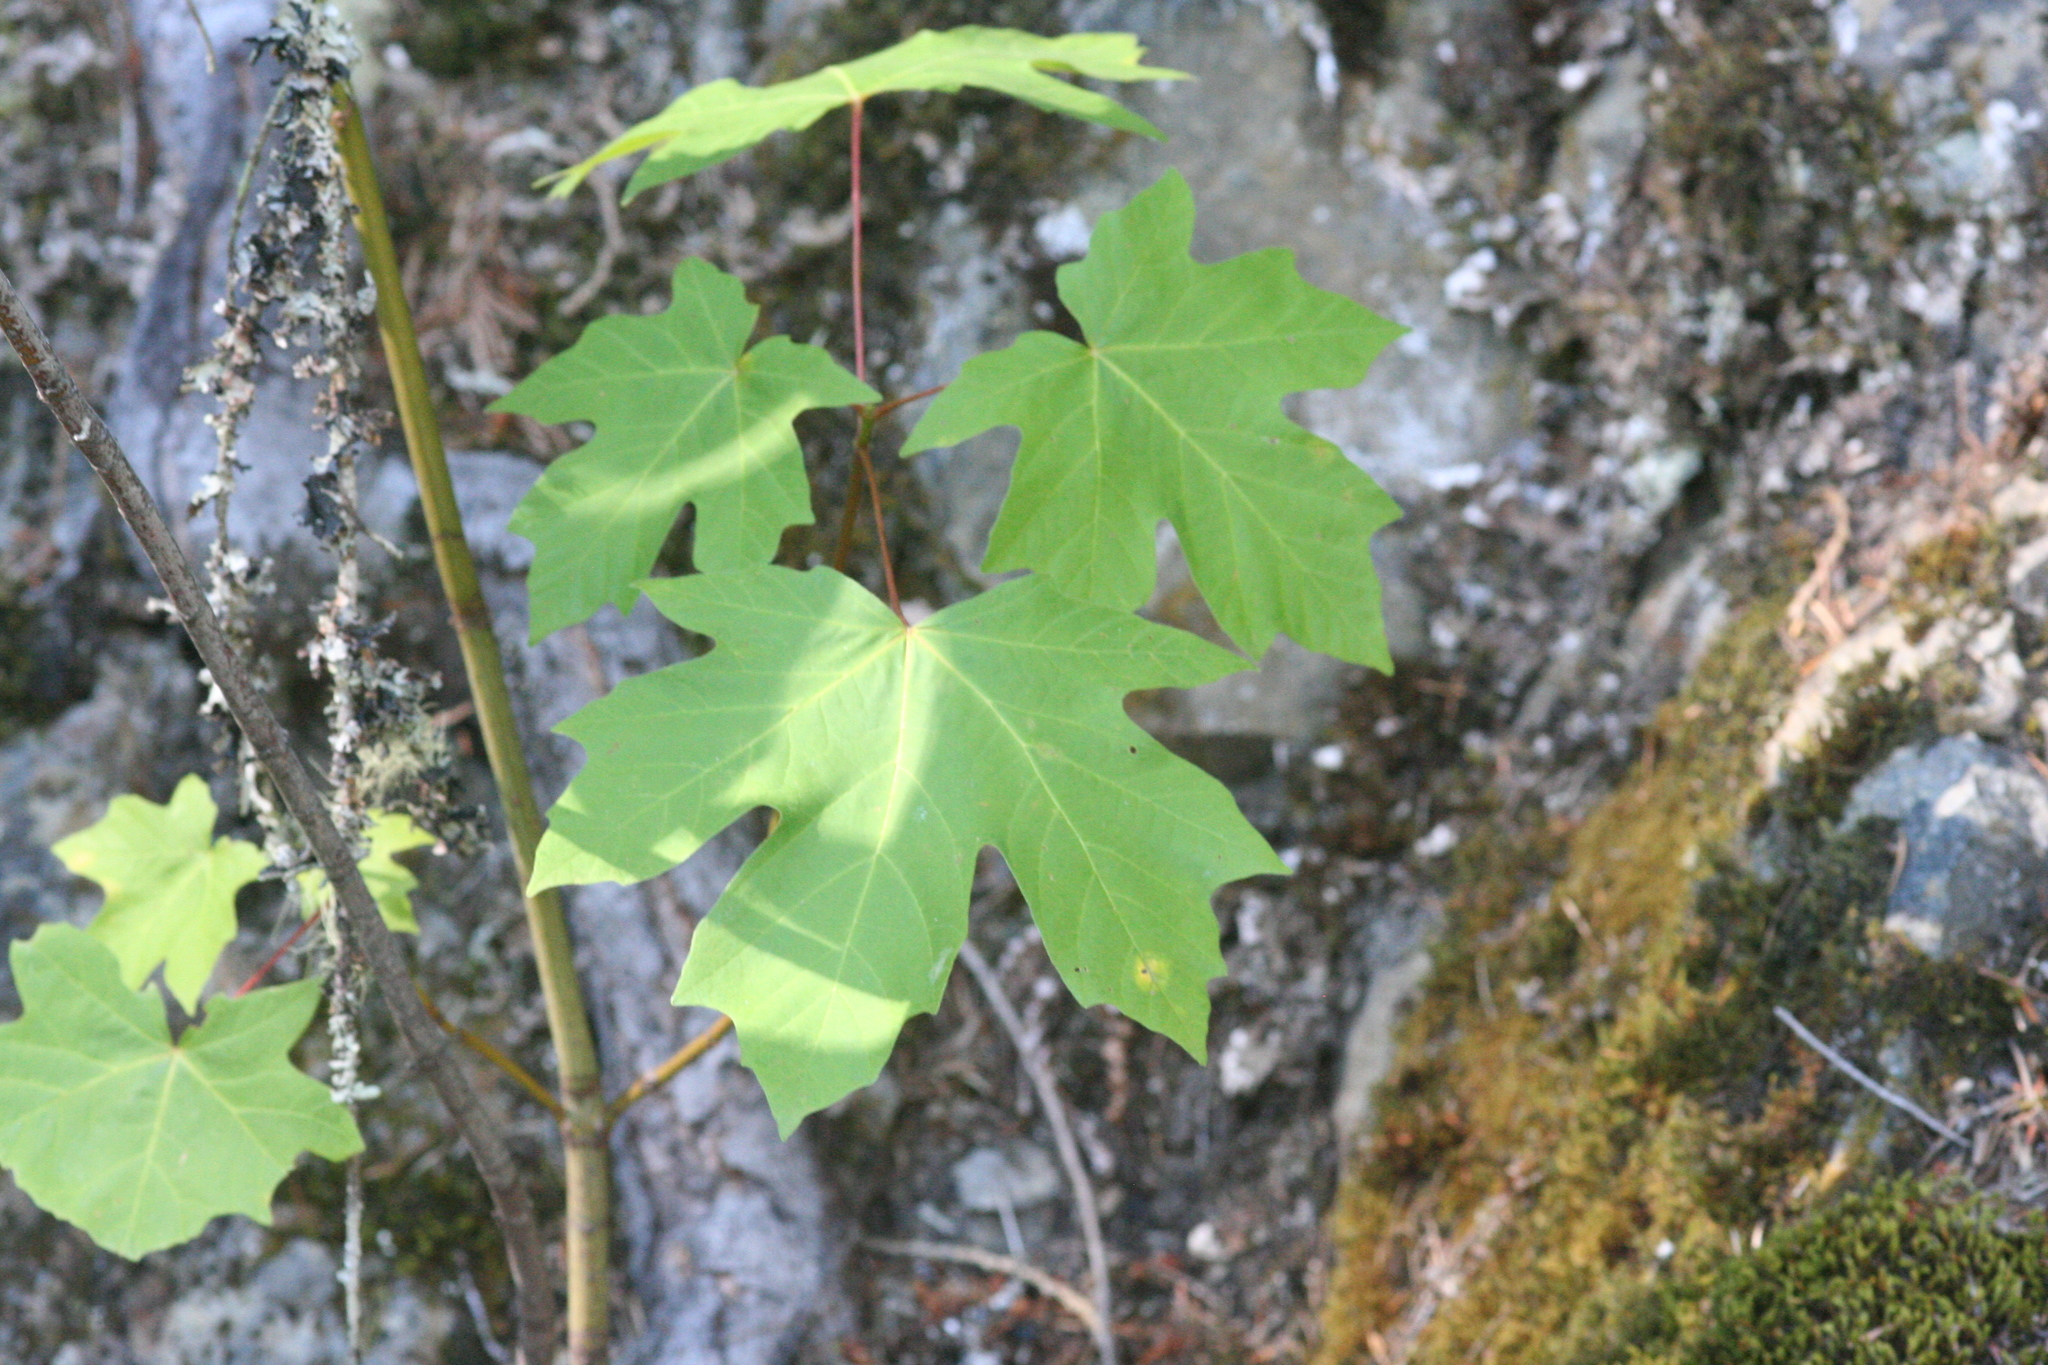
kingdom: Plantae
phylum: Tracheophyta
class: Magnoliopsida
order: Sapindales
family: Sapindaceae
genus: Acer
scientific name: Acer macrophyllum
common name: Oregon maple
